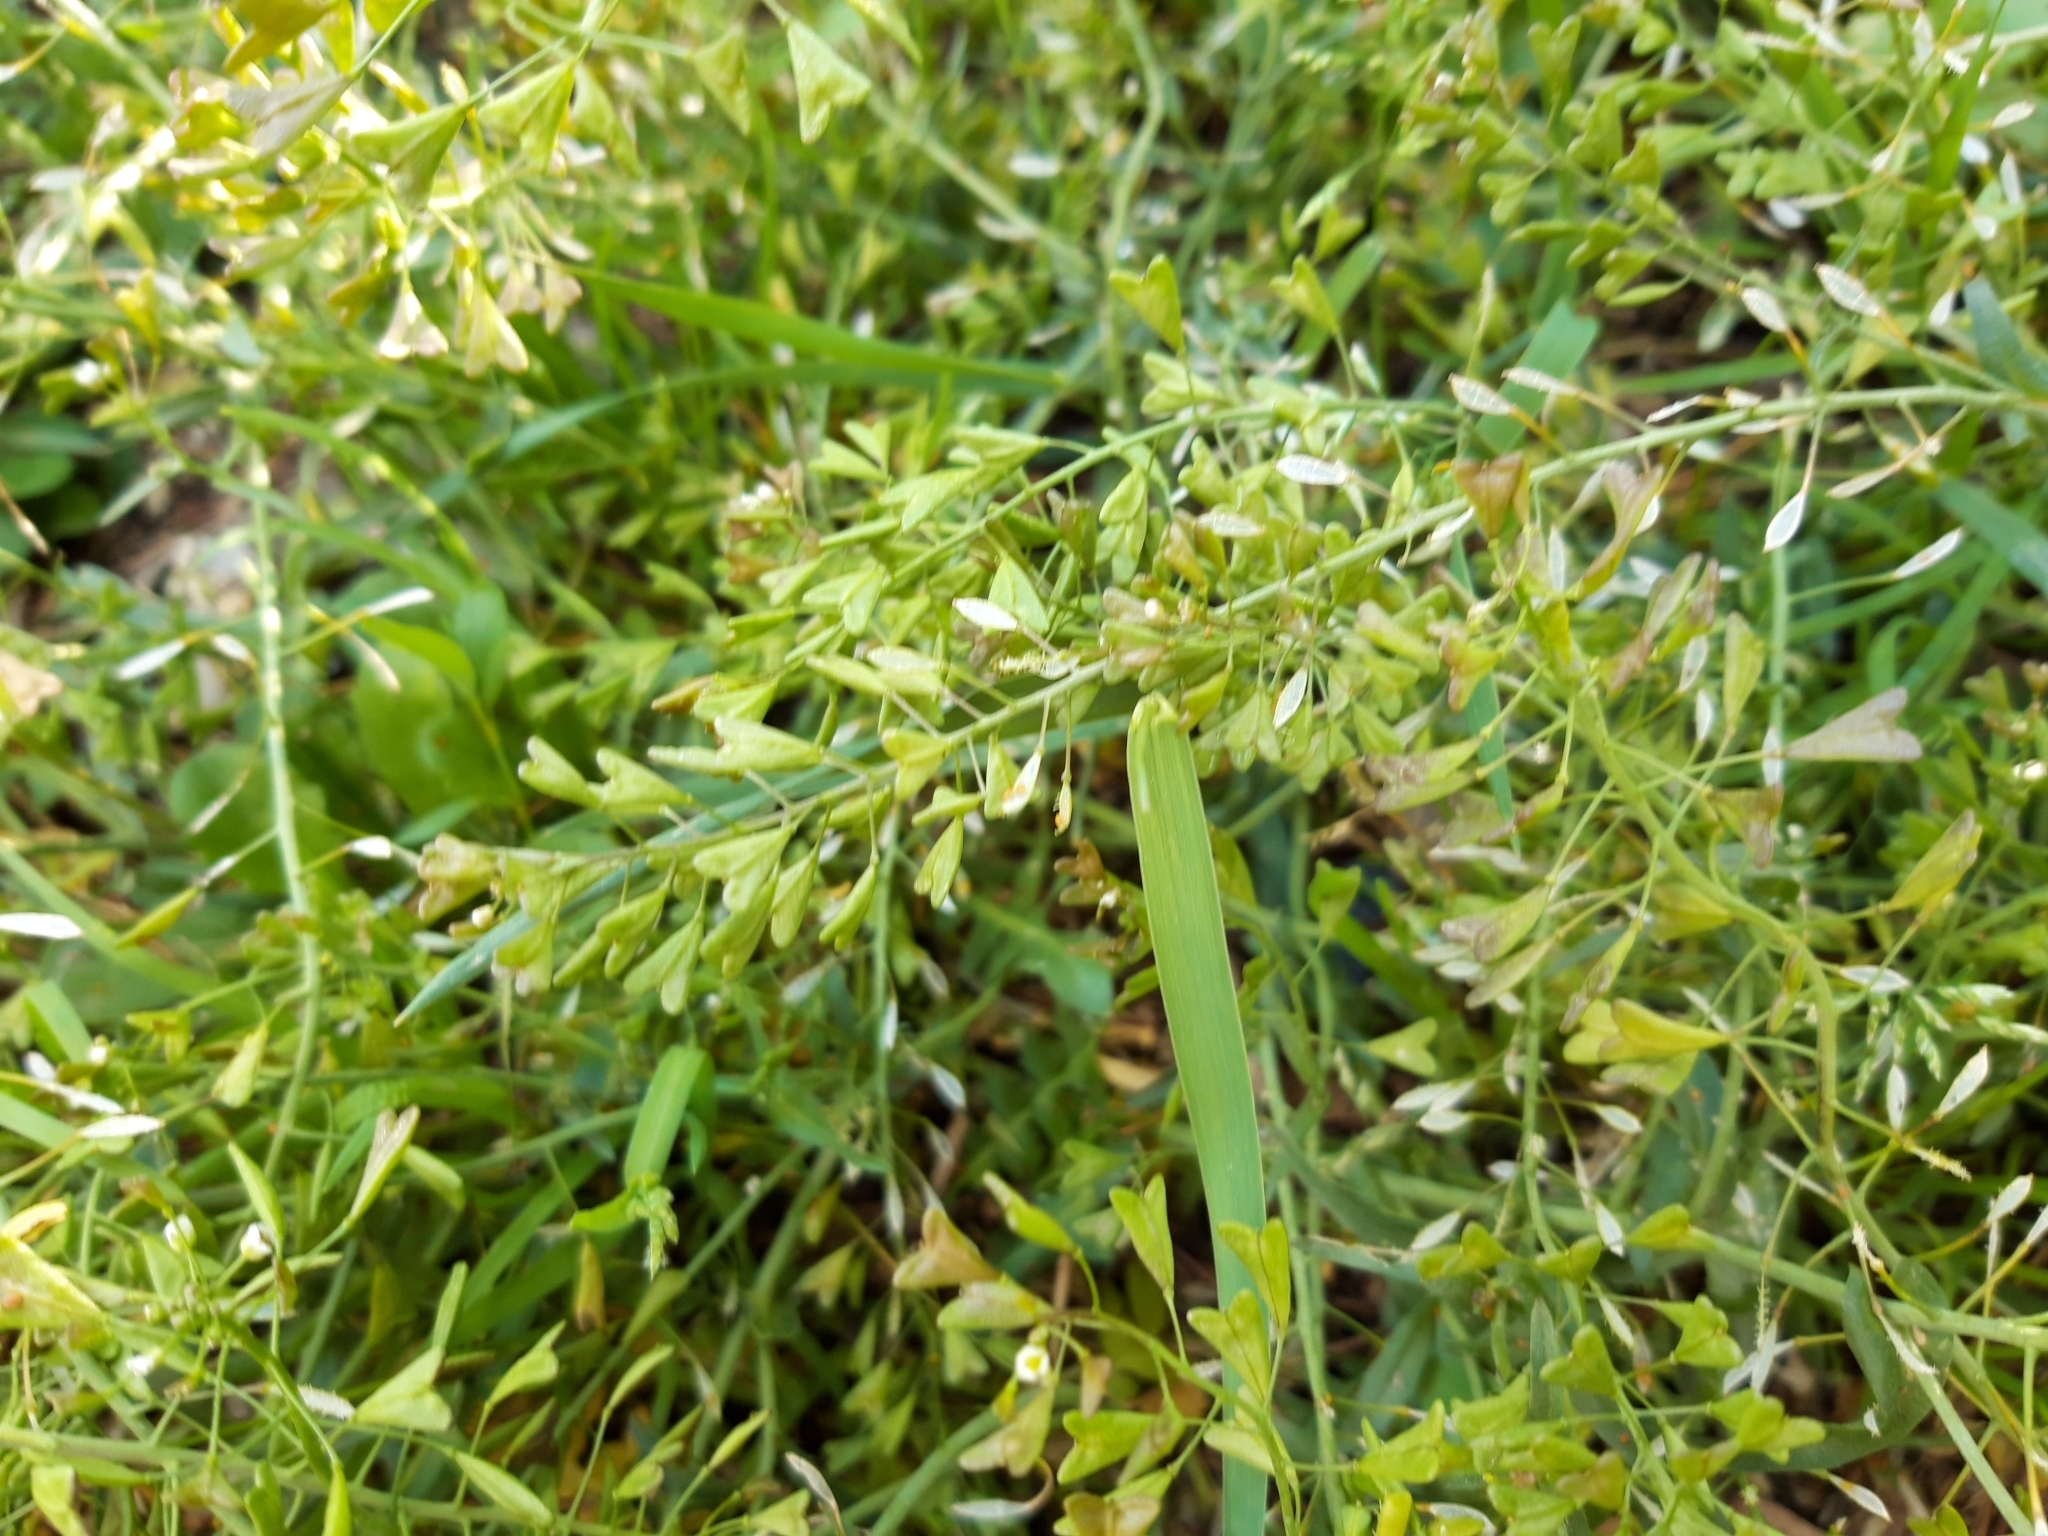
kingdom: Plantae
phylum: Tracheophyta
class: Magnoliopsida
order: Brassicales
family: Brassicaceae
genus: Capsella
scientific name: Capsella bursa-pastoris
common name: Shepherd's purse
